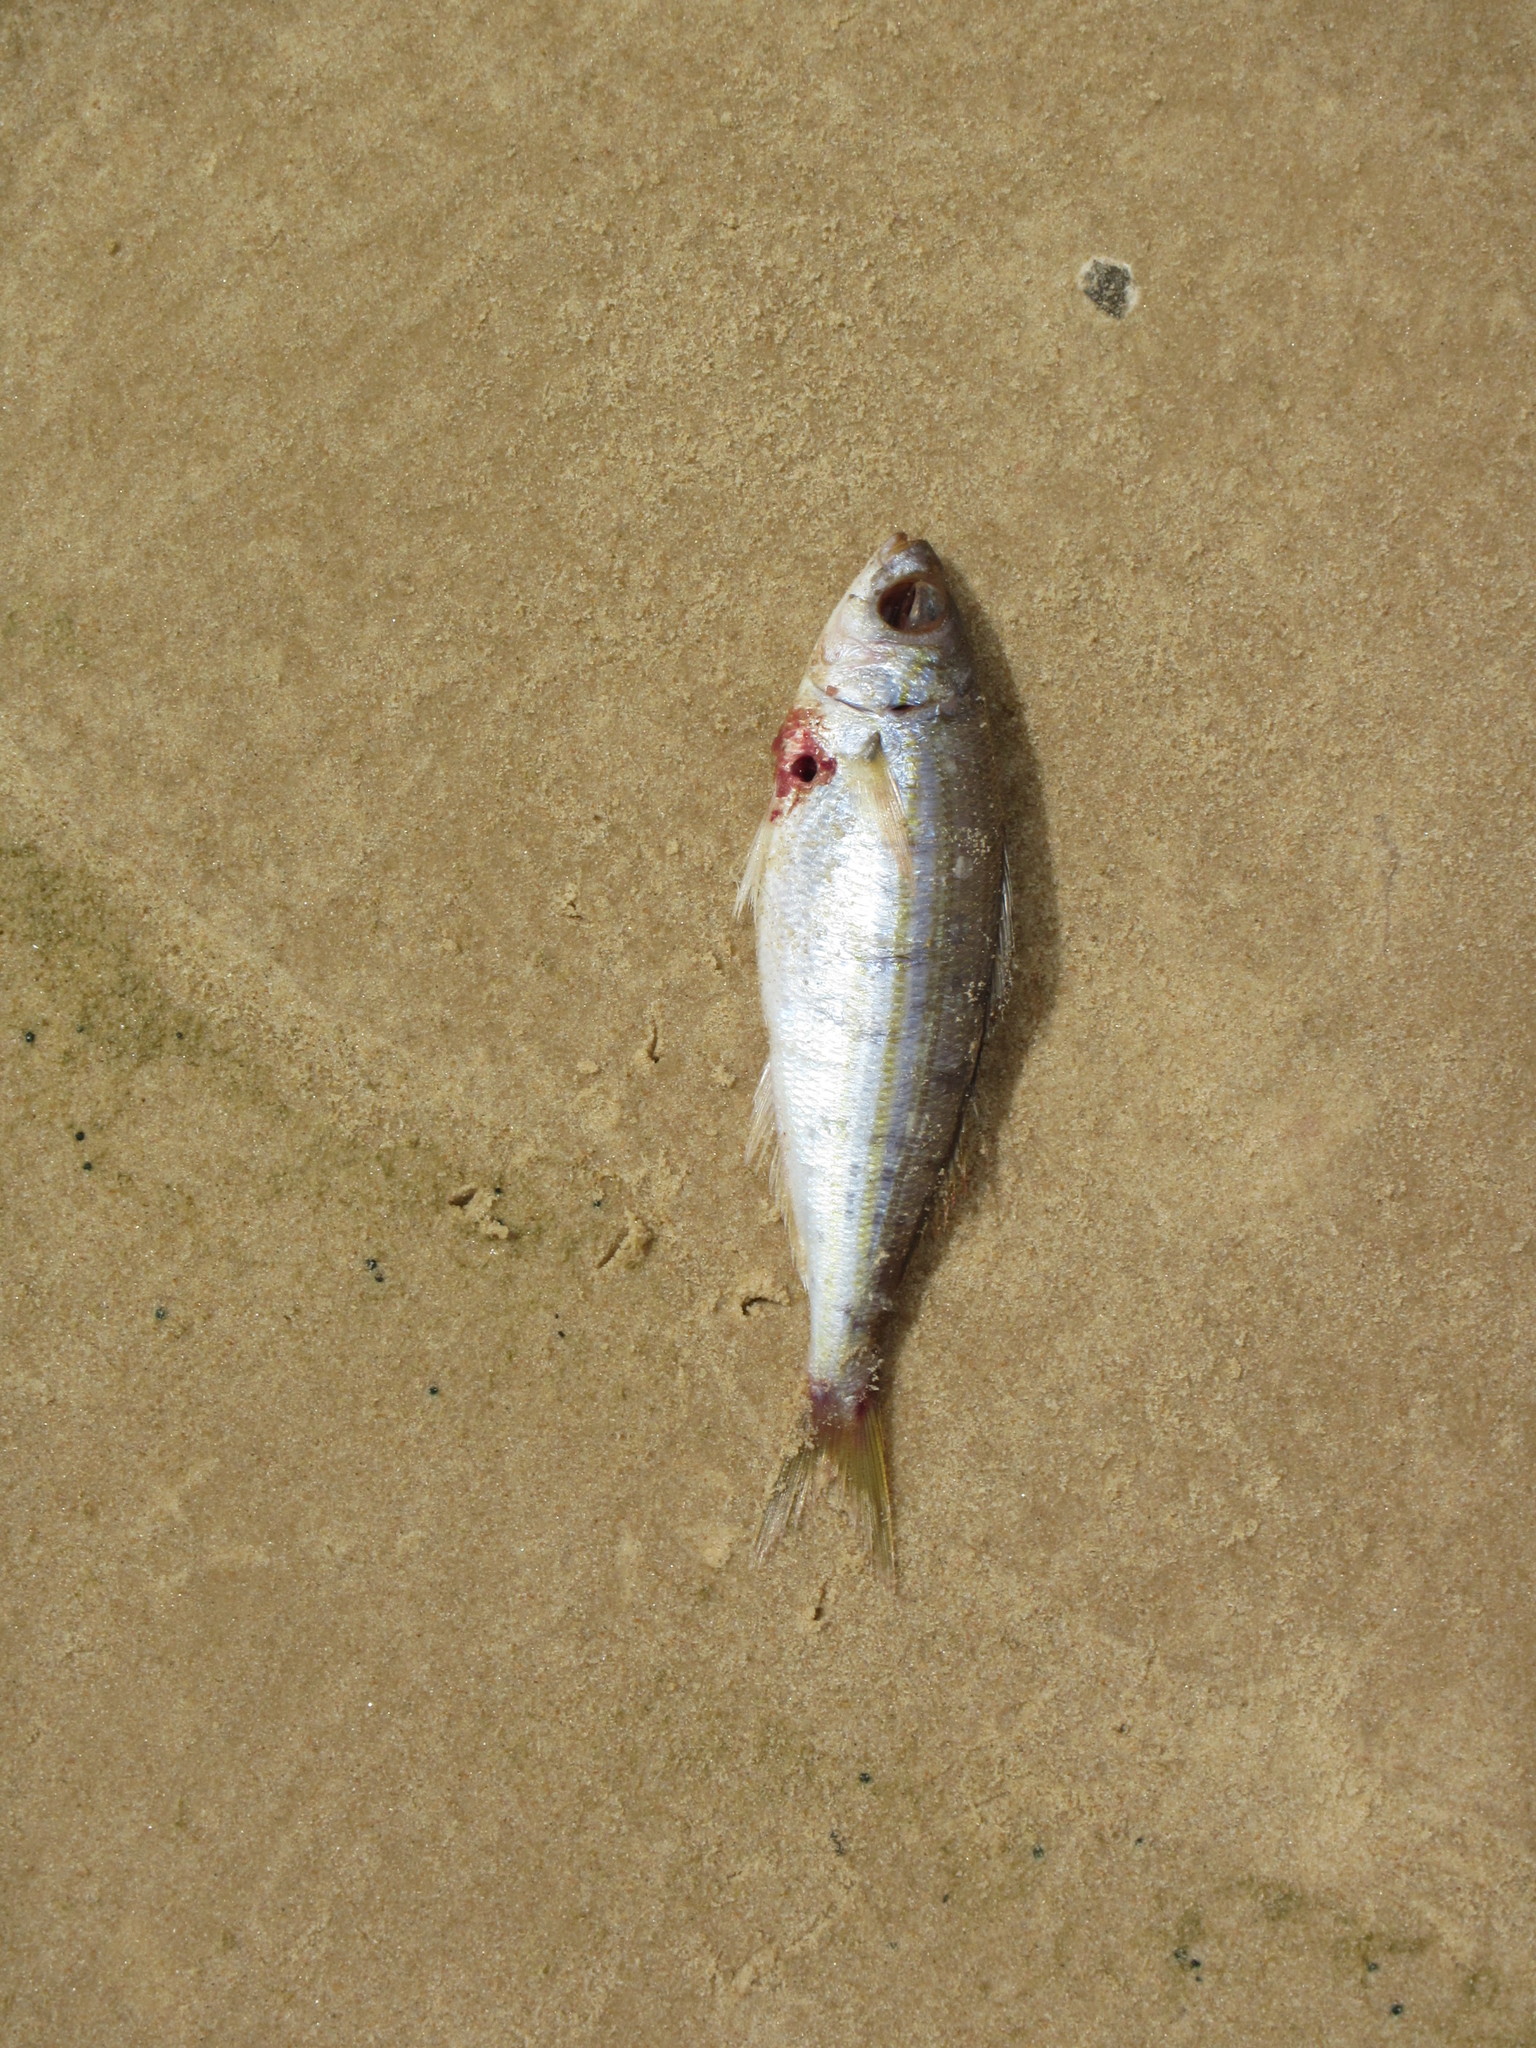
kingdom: Animalia
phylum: Chordata
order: Perciformes
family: Sparidae
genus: Boops
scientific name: Boops boops
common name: Bogue
